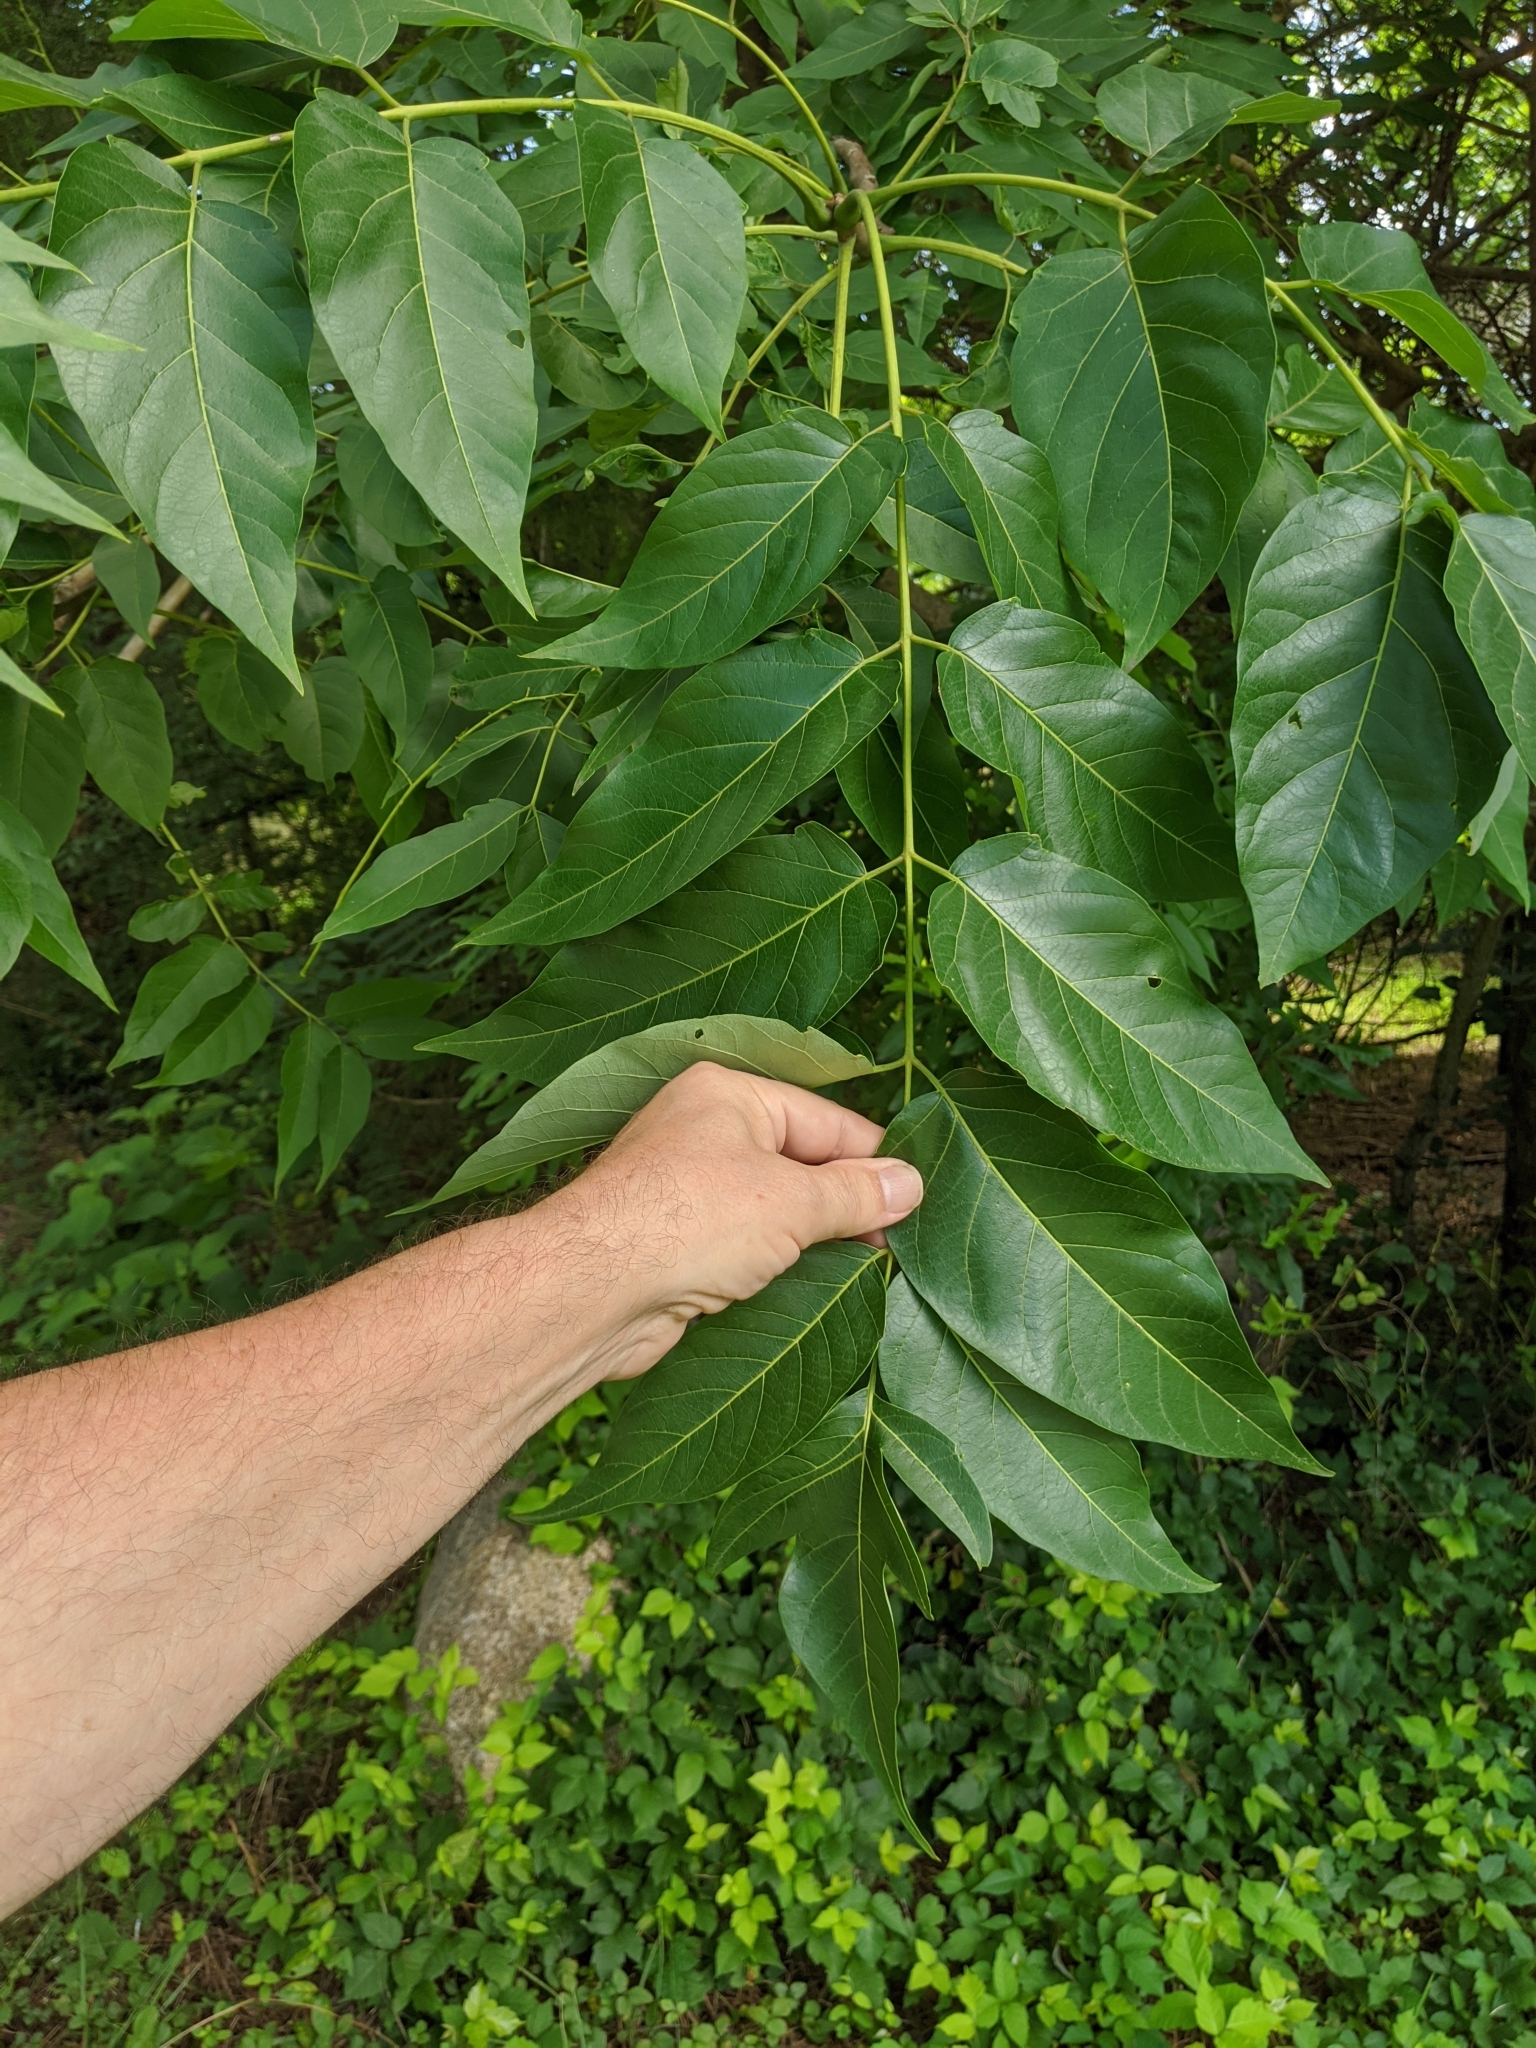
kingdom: Plantae
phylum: Tracheophyta
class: Magnoliopsida
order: Sapindales
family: Simaroubaceae
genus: Ailanthus
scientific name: Ailanthus altissima
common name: Tree-of-heaven
